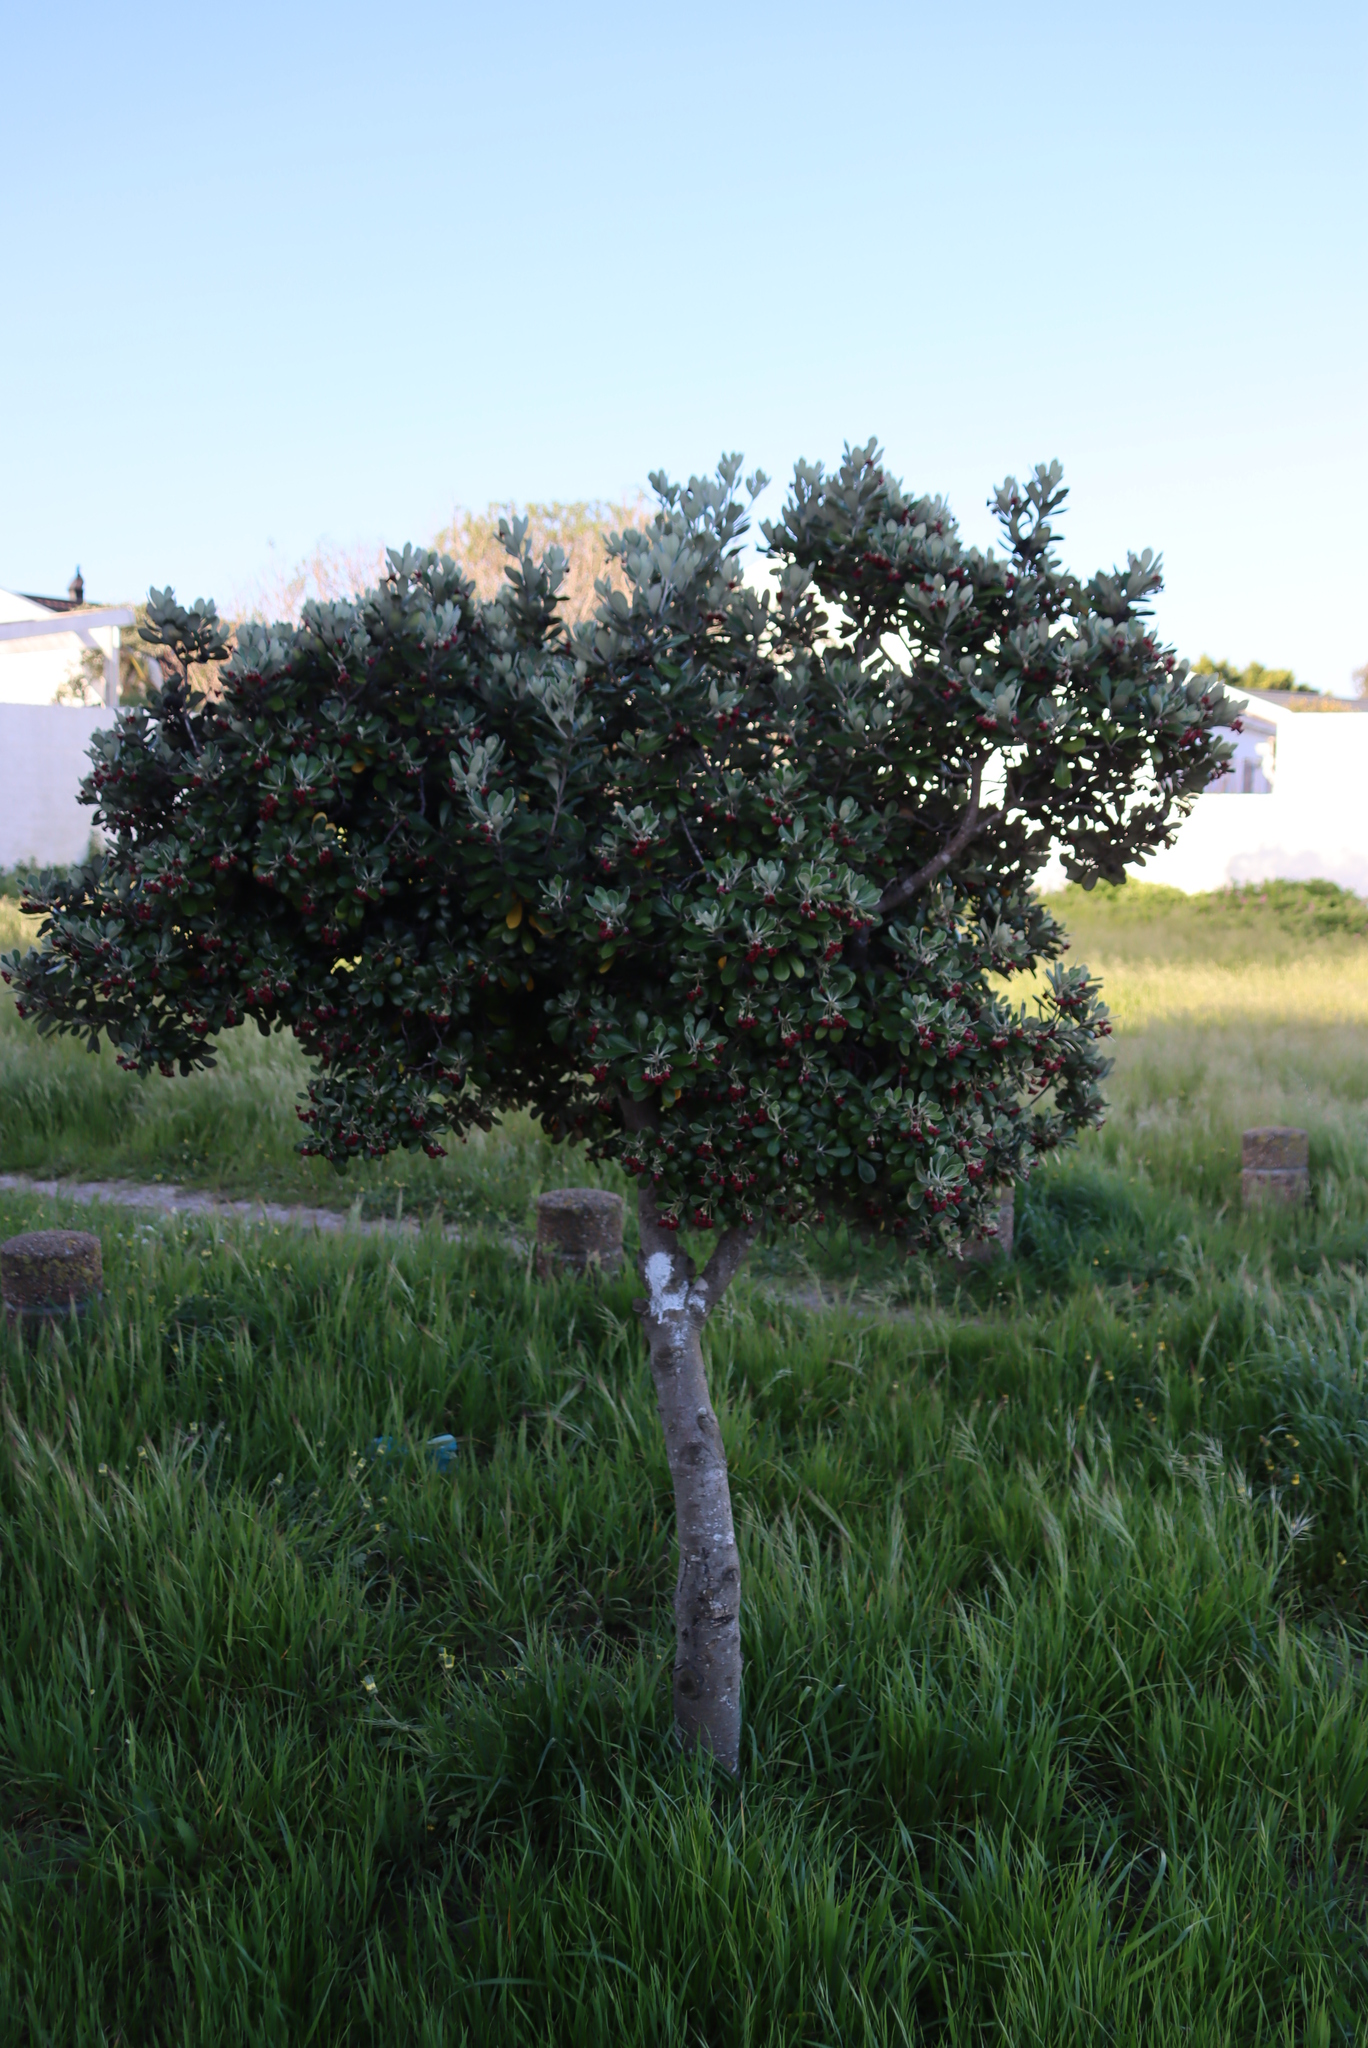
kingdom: Plantae
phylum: Tracheophyta
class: Magnoliopsida
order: Apiales
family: Pittosporaceae
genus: Pittosporum
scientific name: Pittosporum crassifolium
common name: Karo
